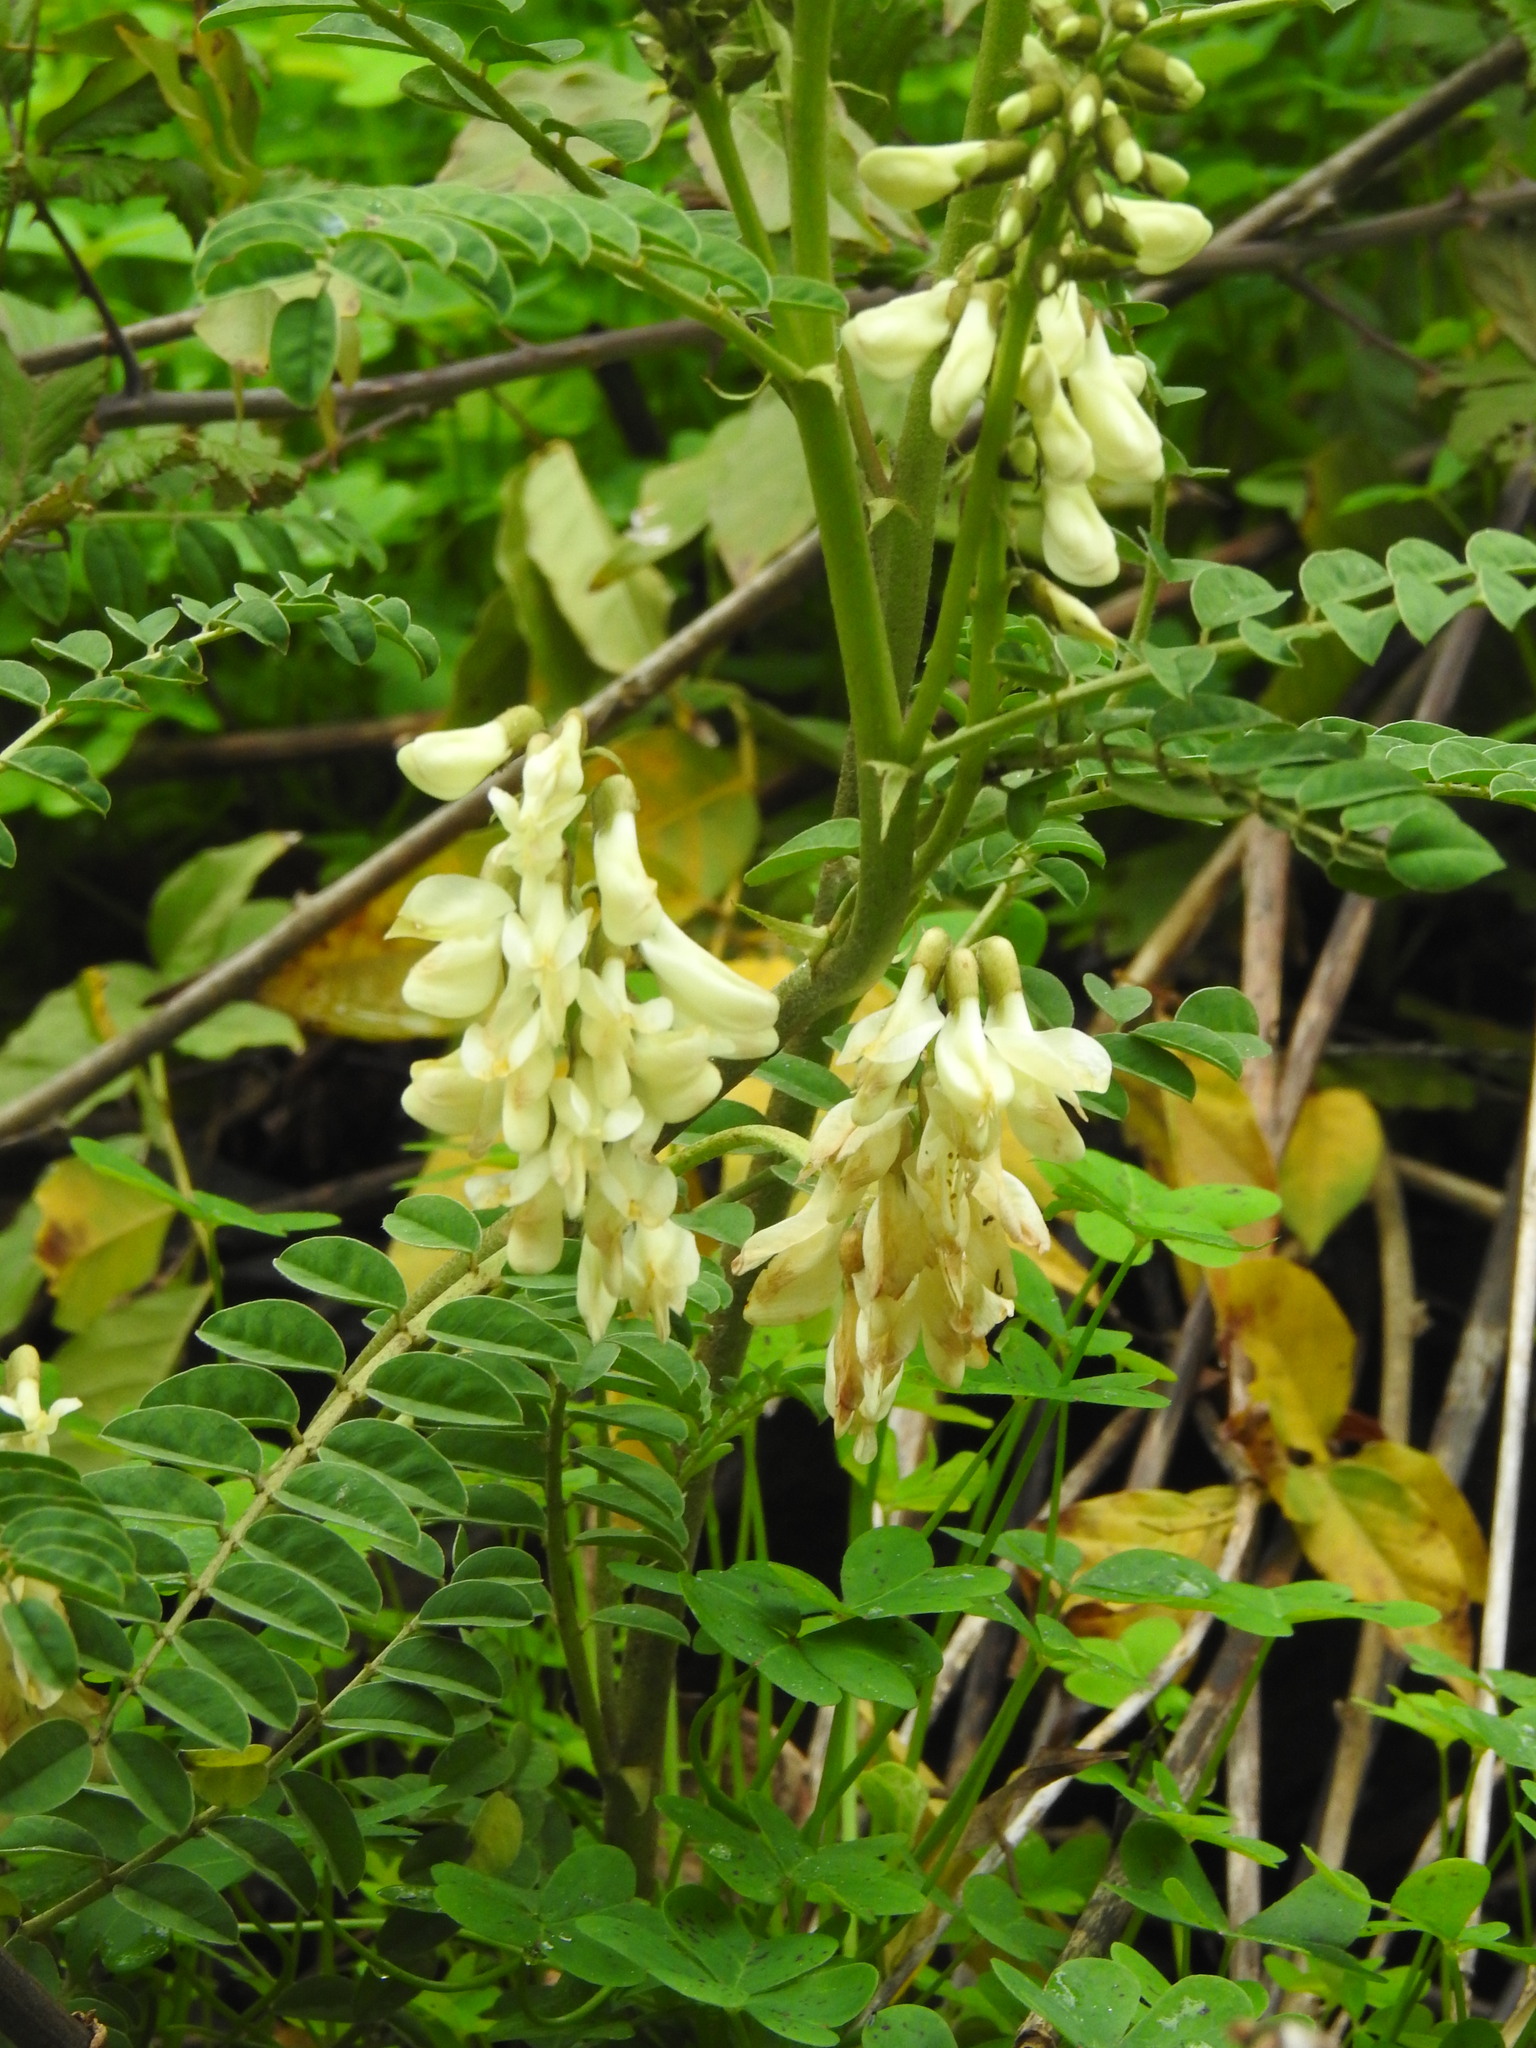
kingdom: Plantae
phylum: Tracheophyta
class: Magnoliopsida
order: Fabales
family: Fabaceae
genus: Erophaca
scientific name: Erophaca baetica
